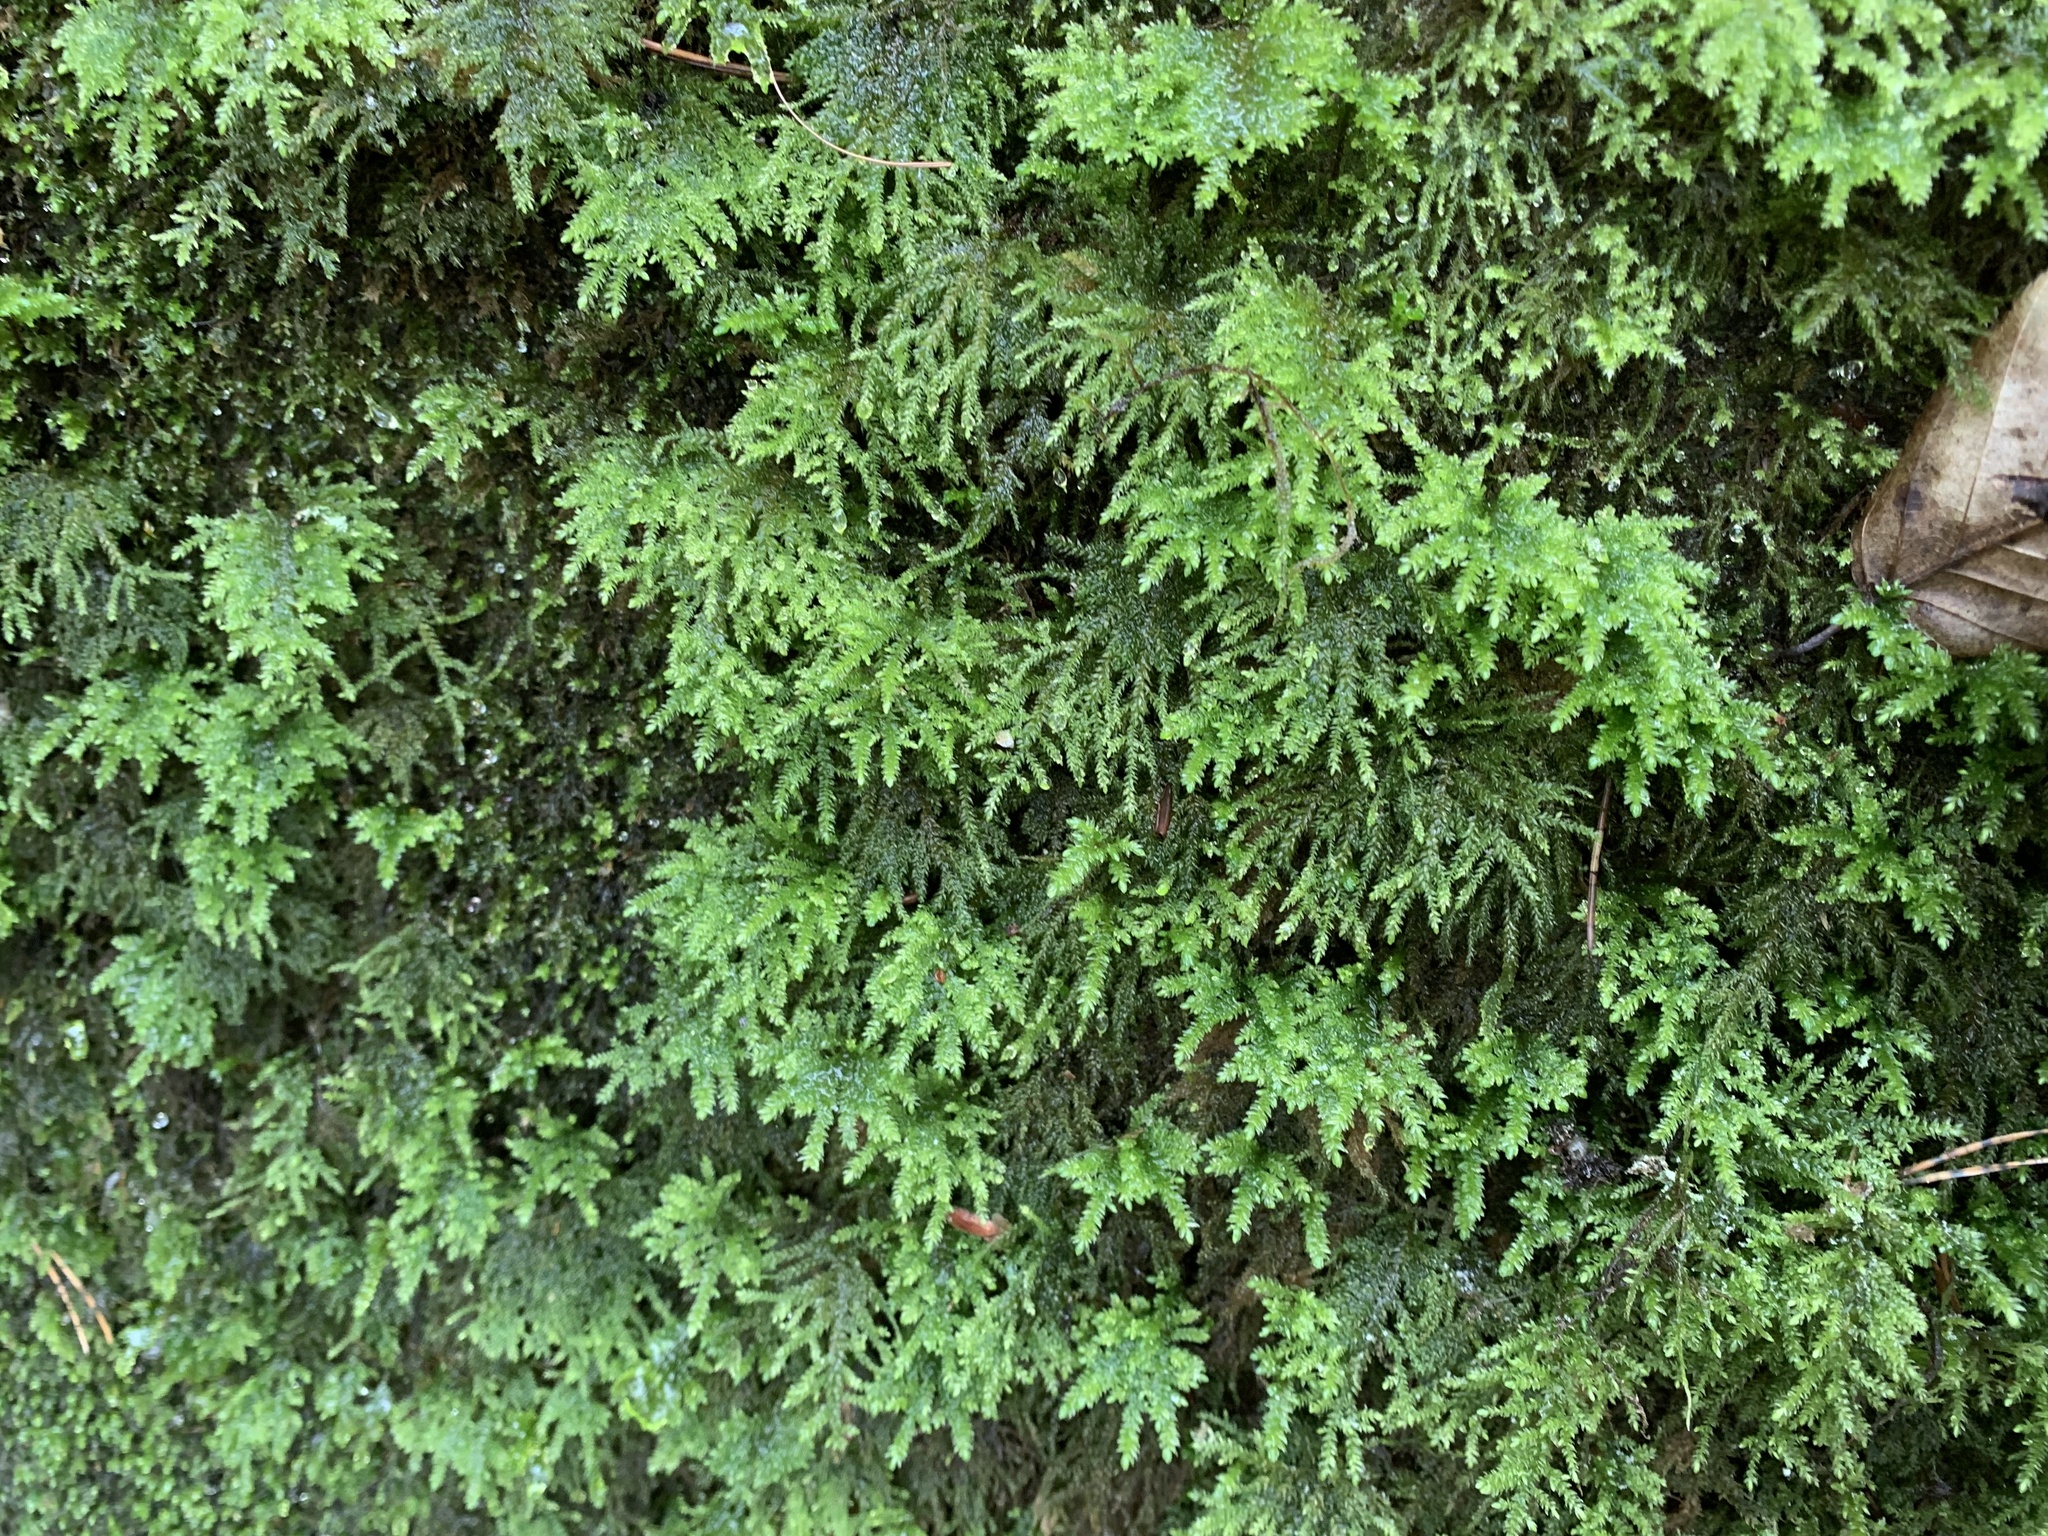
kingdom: Plantae
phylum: Bryophyta
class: Bryopsida
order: Hypnales
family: Neckeraceae
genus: Thamnobryum
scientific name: Thamnobryum alopecurum
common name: Fox-tail feather-moss
